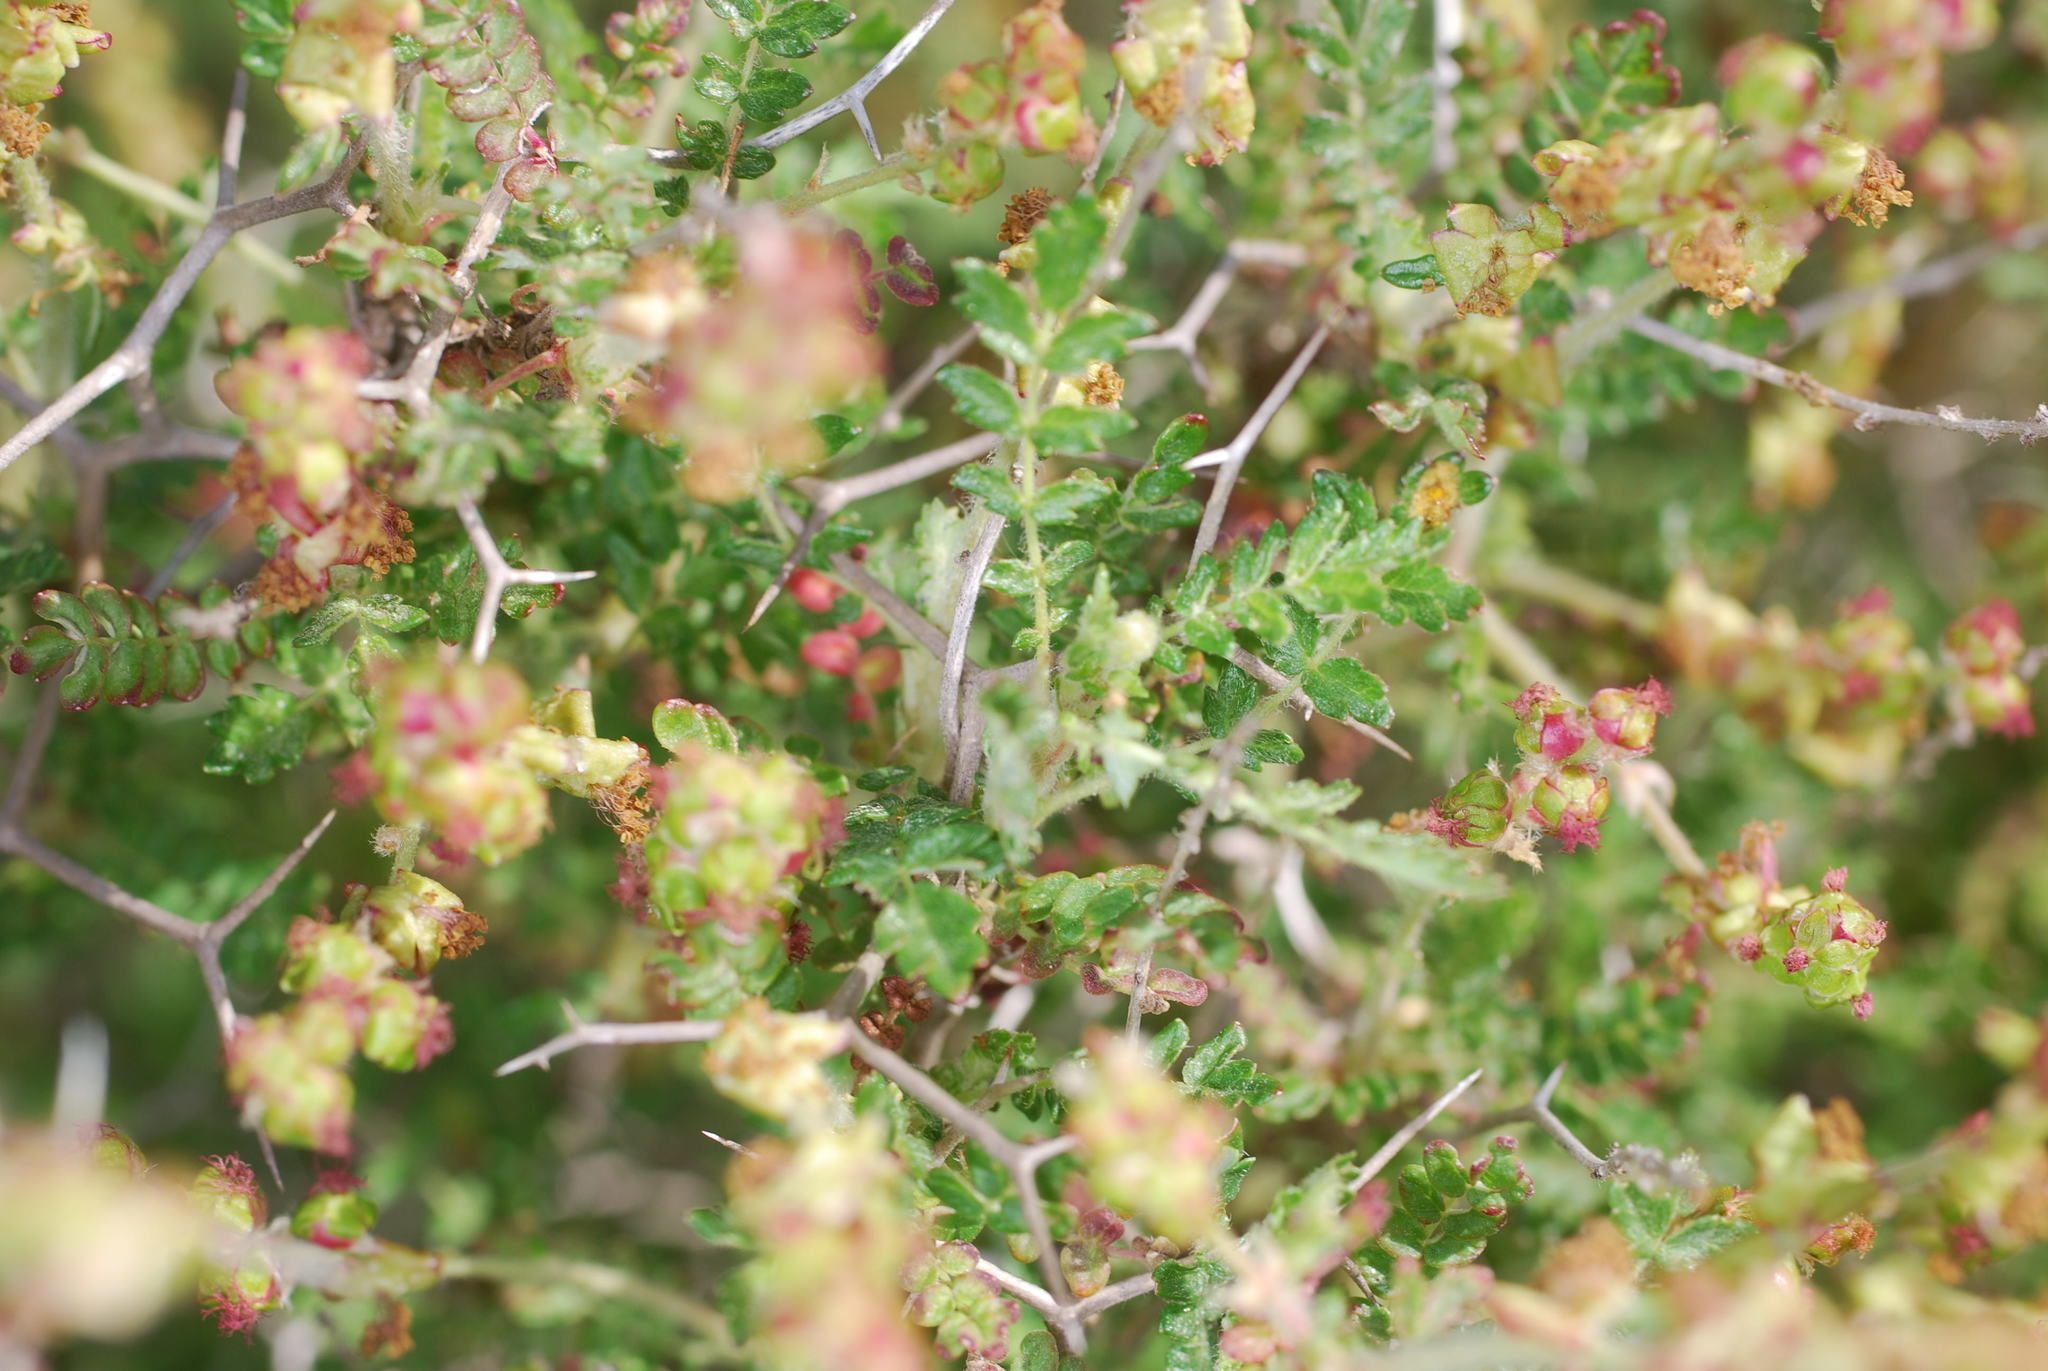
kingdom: Plantae
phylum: Tracheophyta
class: Magnoliopsida
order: Rosales
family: Rosaceae
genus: Sarcopoterium
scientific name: Sarcopoterium spinosum
